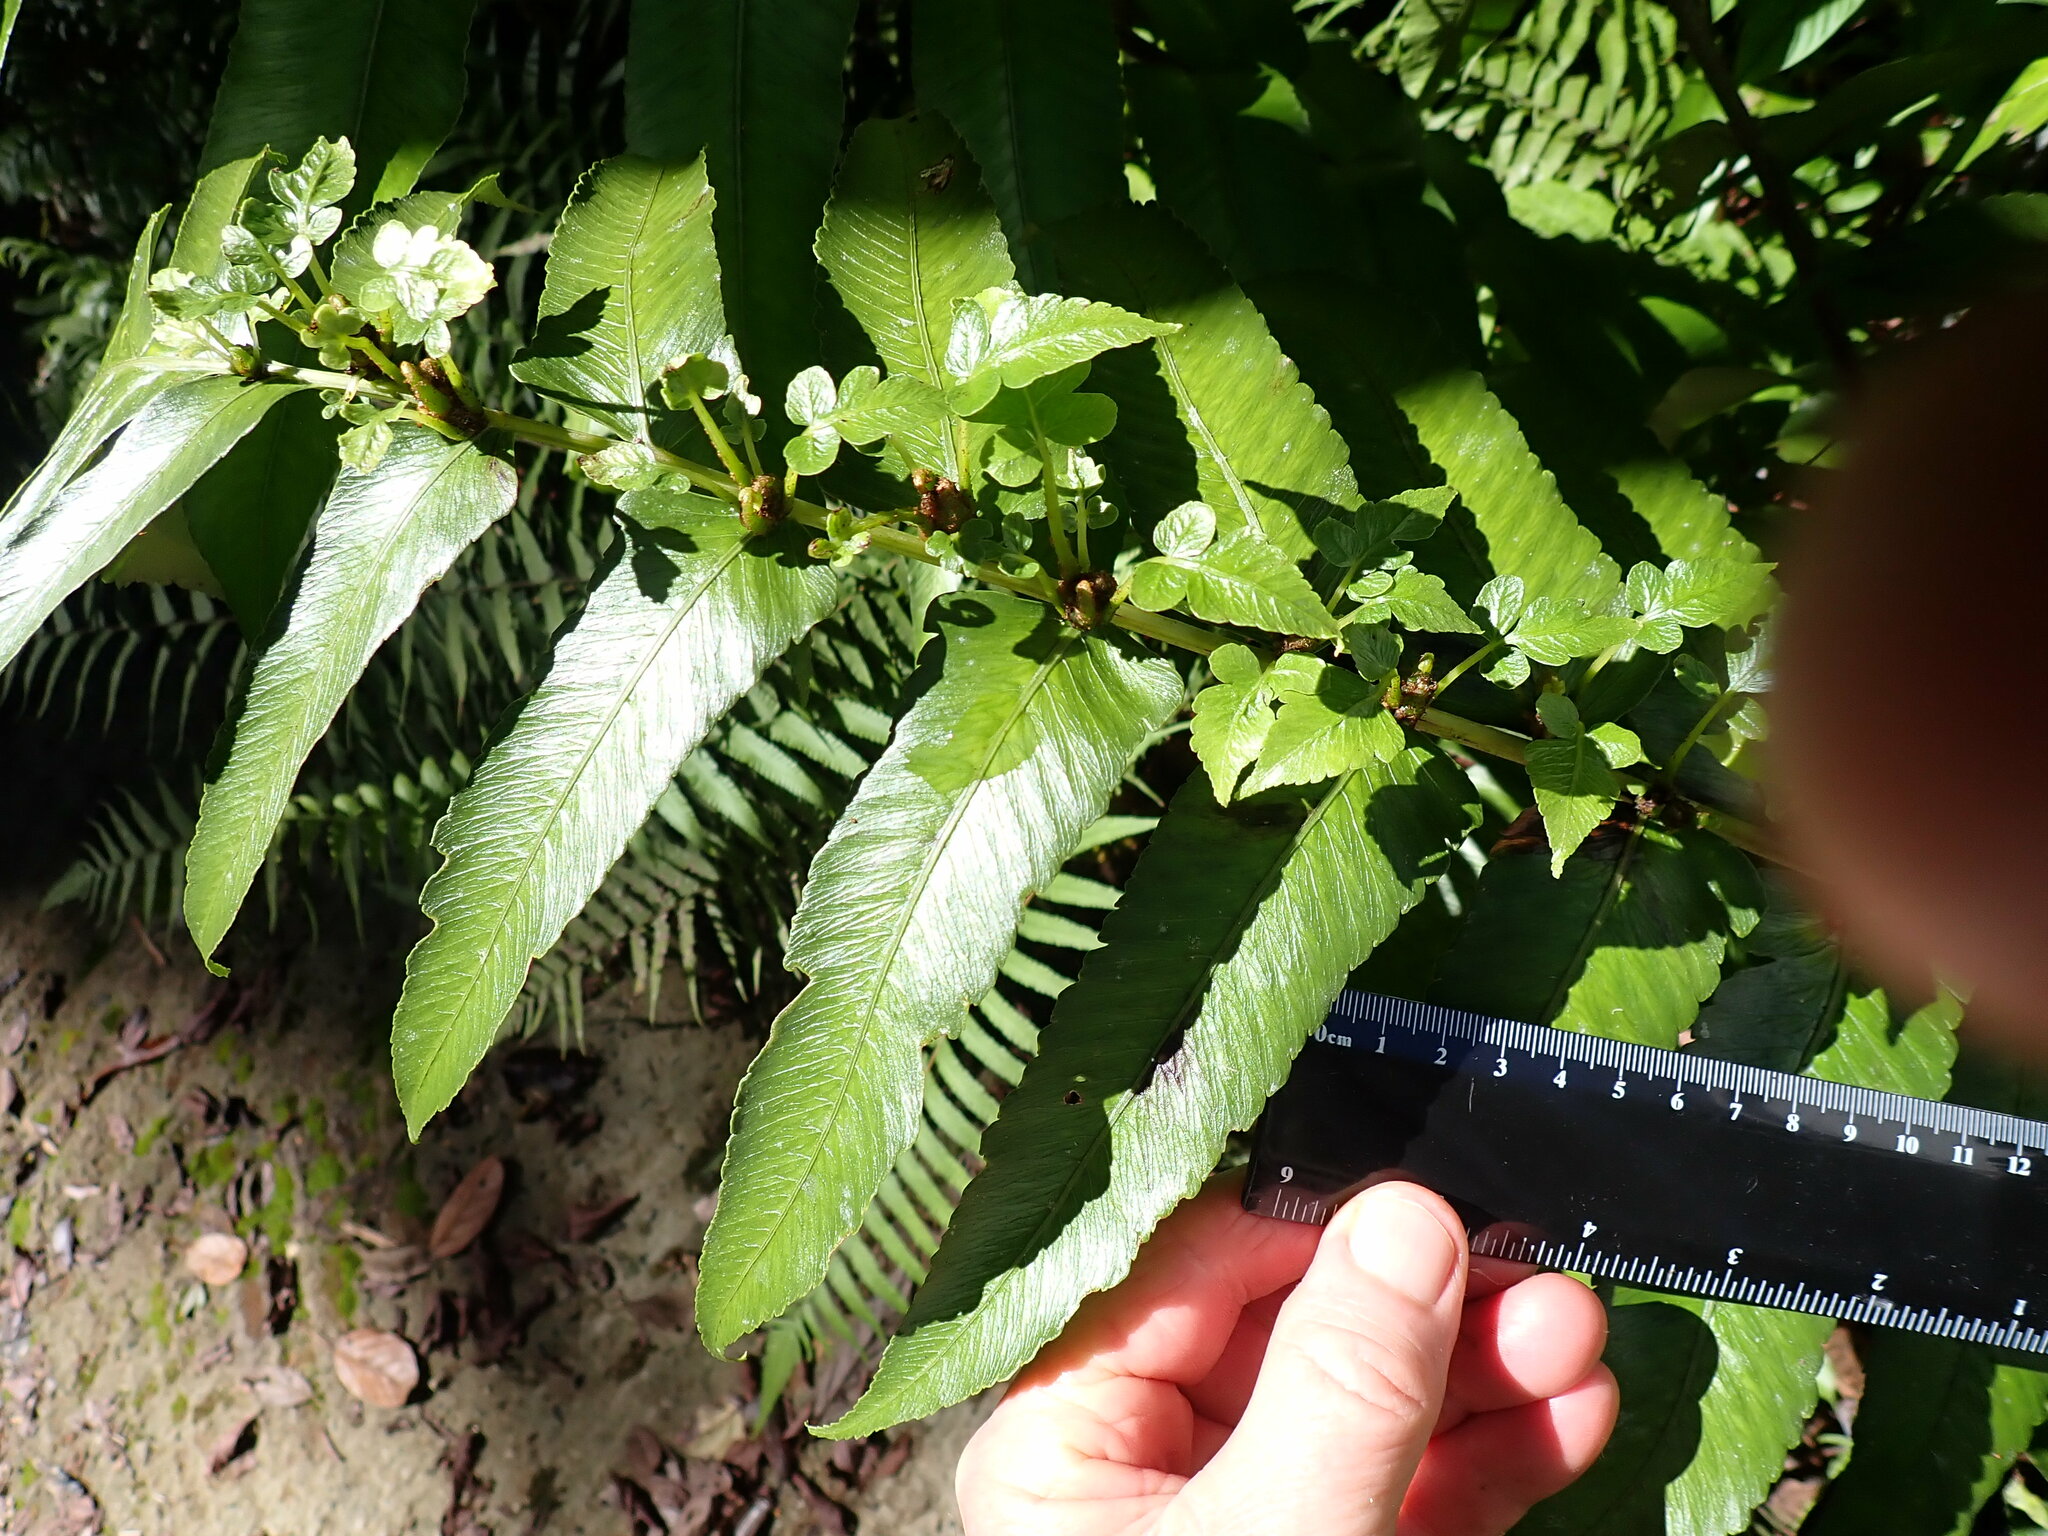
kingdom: Plantae
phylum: Tracheophyta
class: Polypodiopsida
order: Polypodiales
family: Athyriaceae
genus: Diplazium
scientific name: Diplazium proliferum
